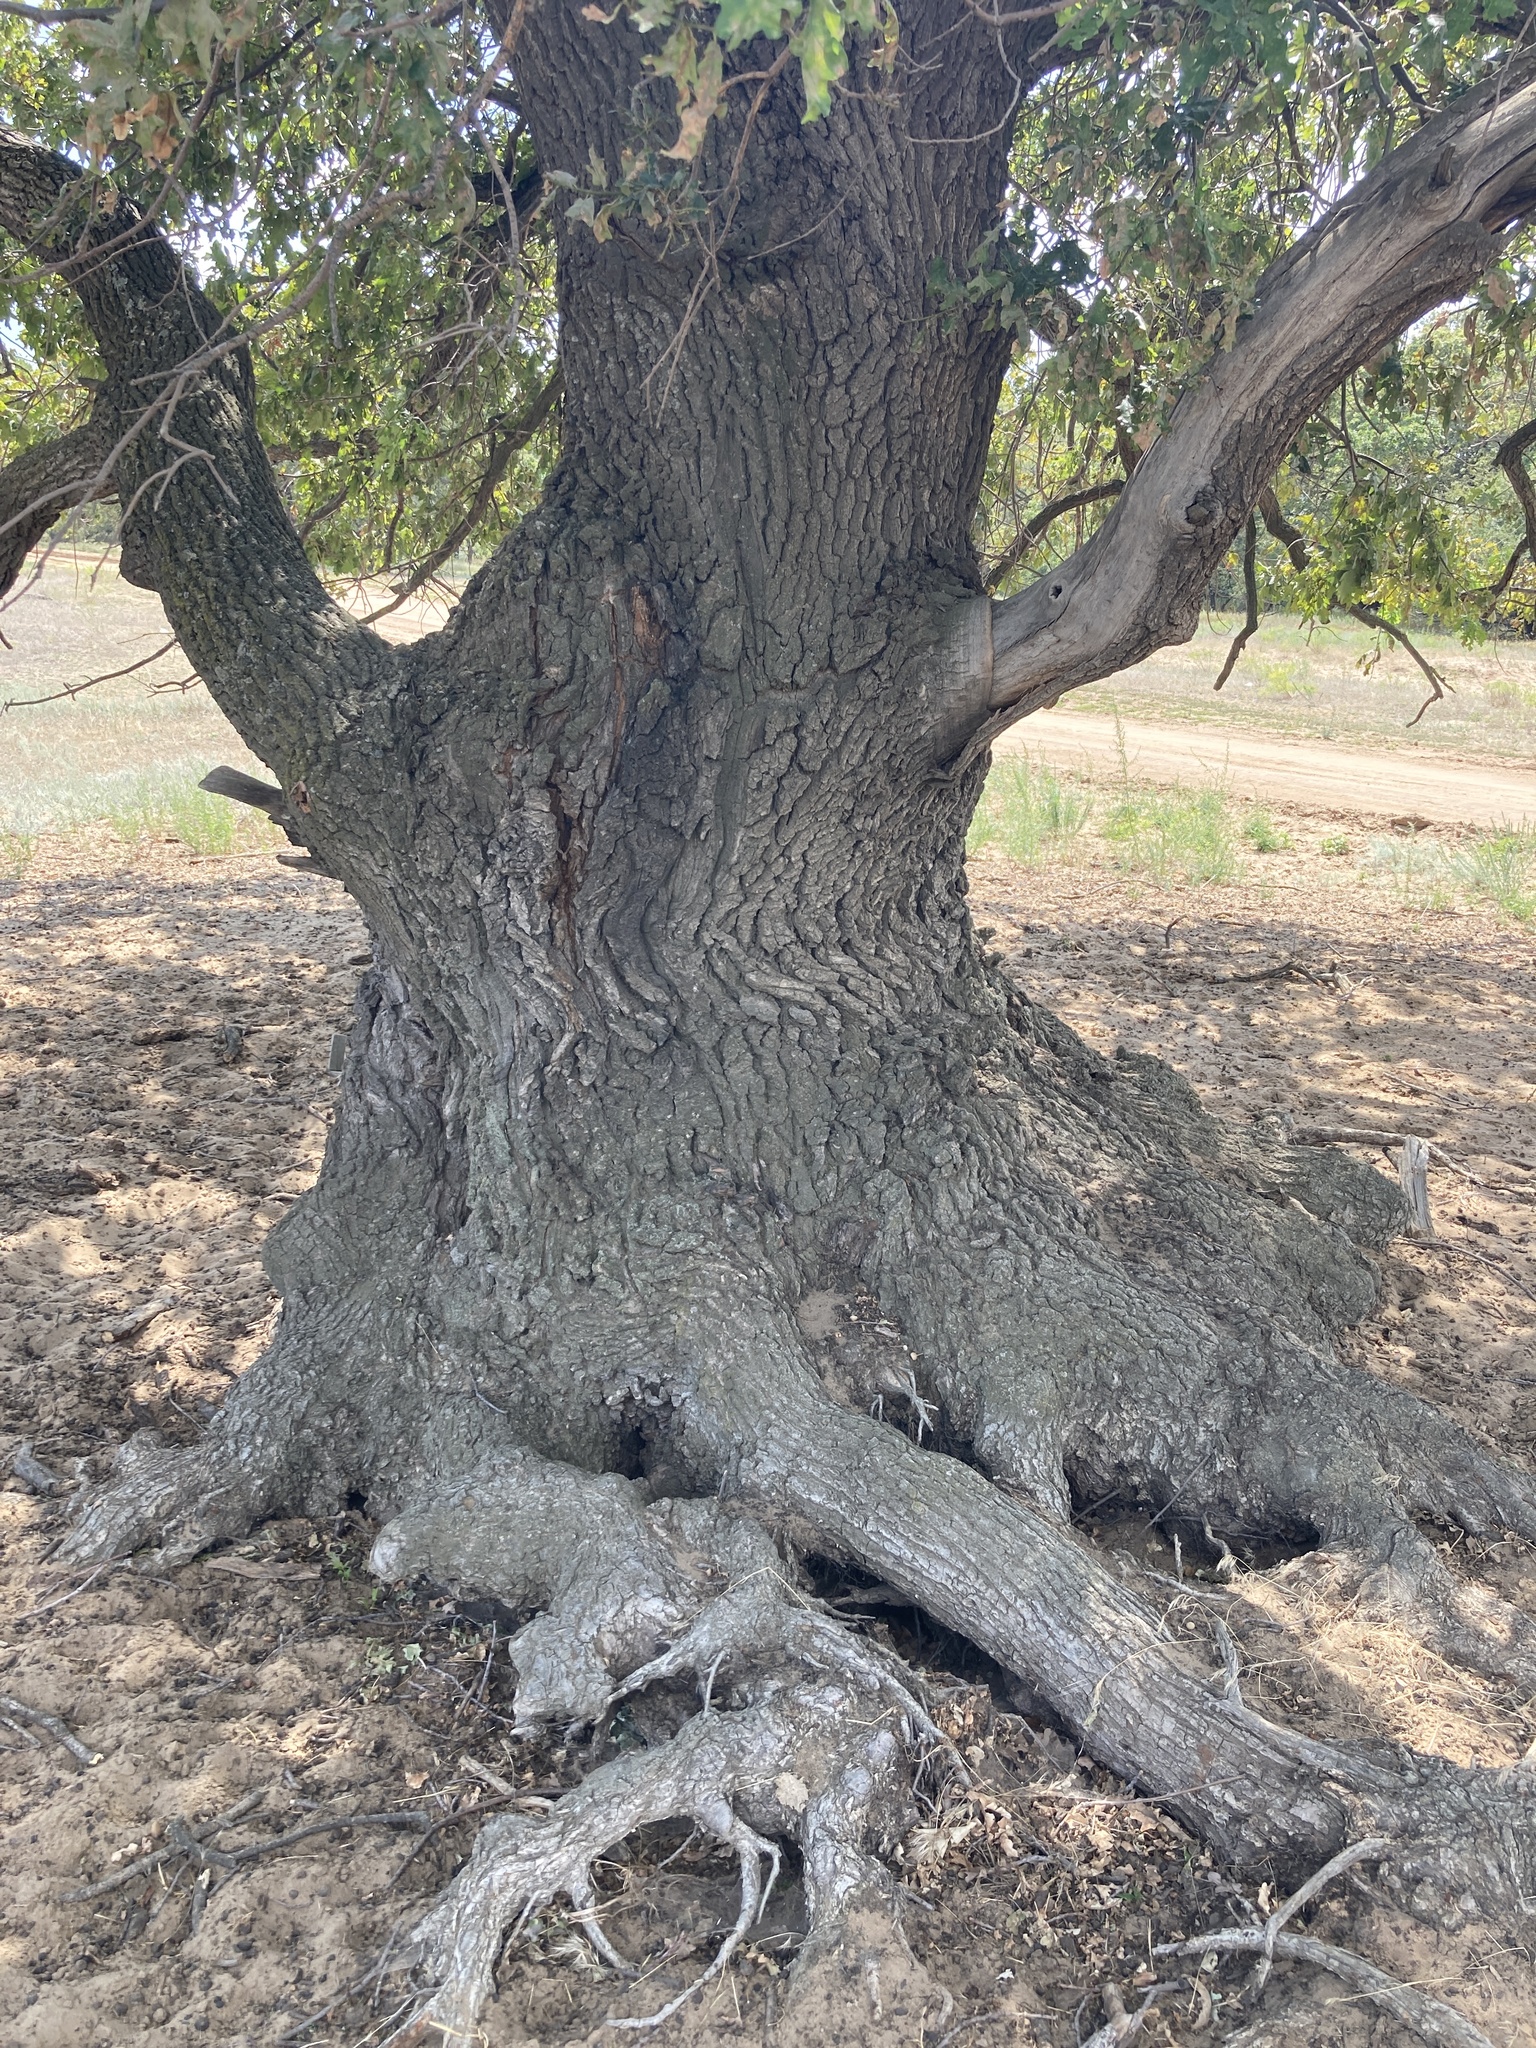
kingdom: Plantae
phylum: Tracheophyta
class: Magnoliopsida
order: Fagales
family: Fagaceae
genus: Quercus
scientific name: Quercus robur
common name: Pedunculate oak
